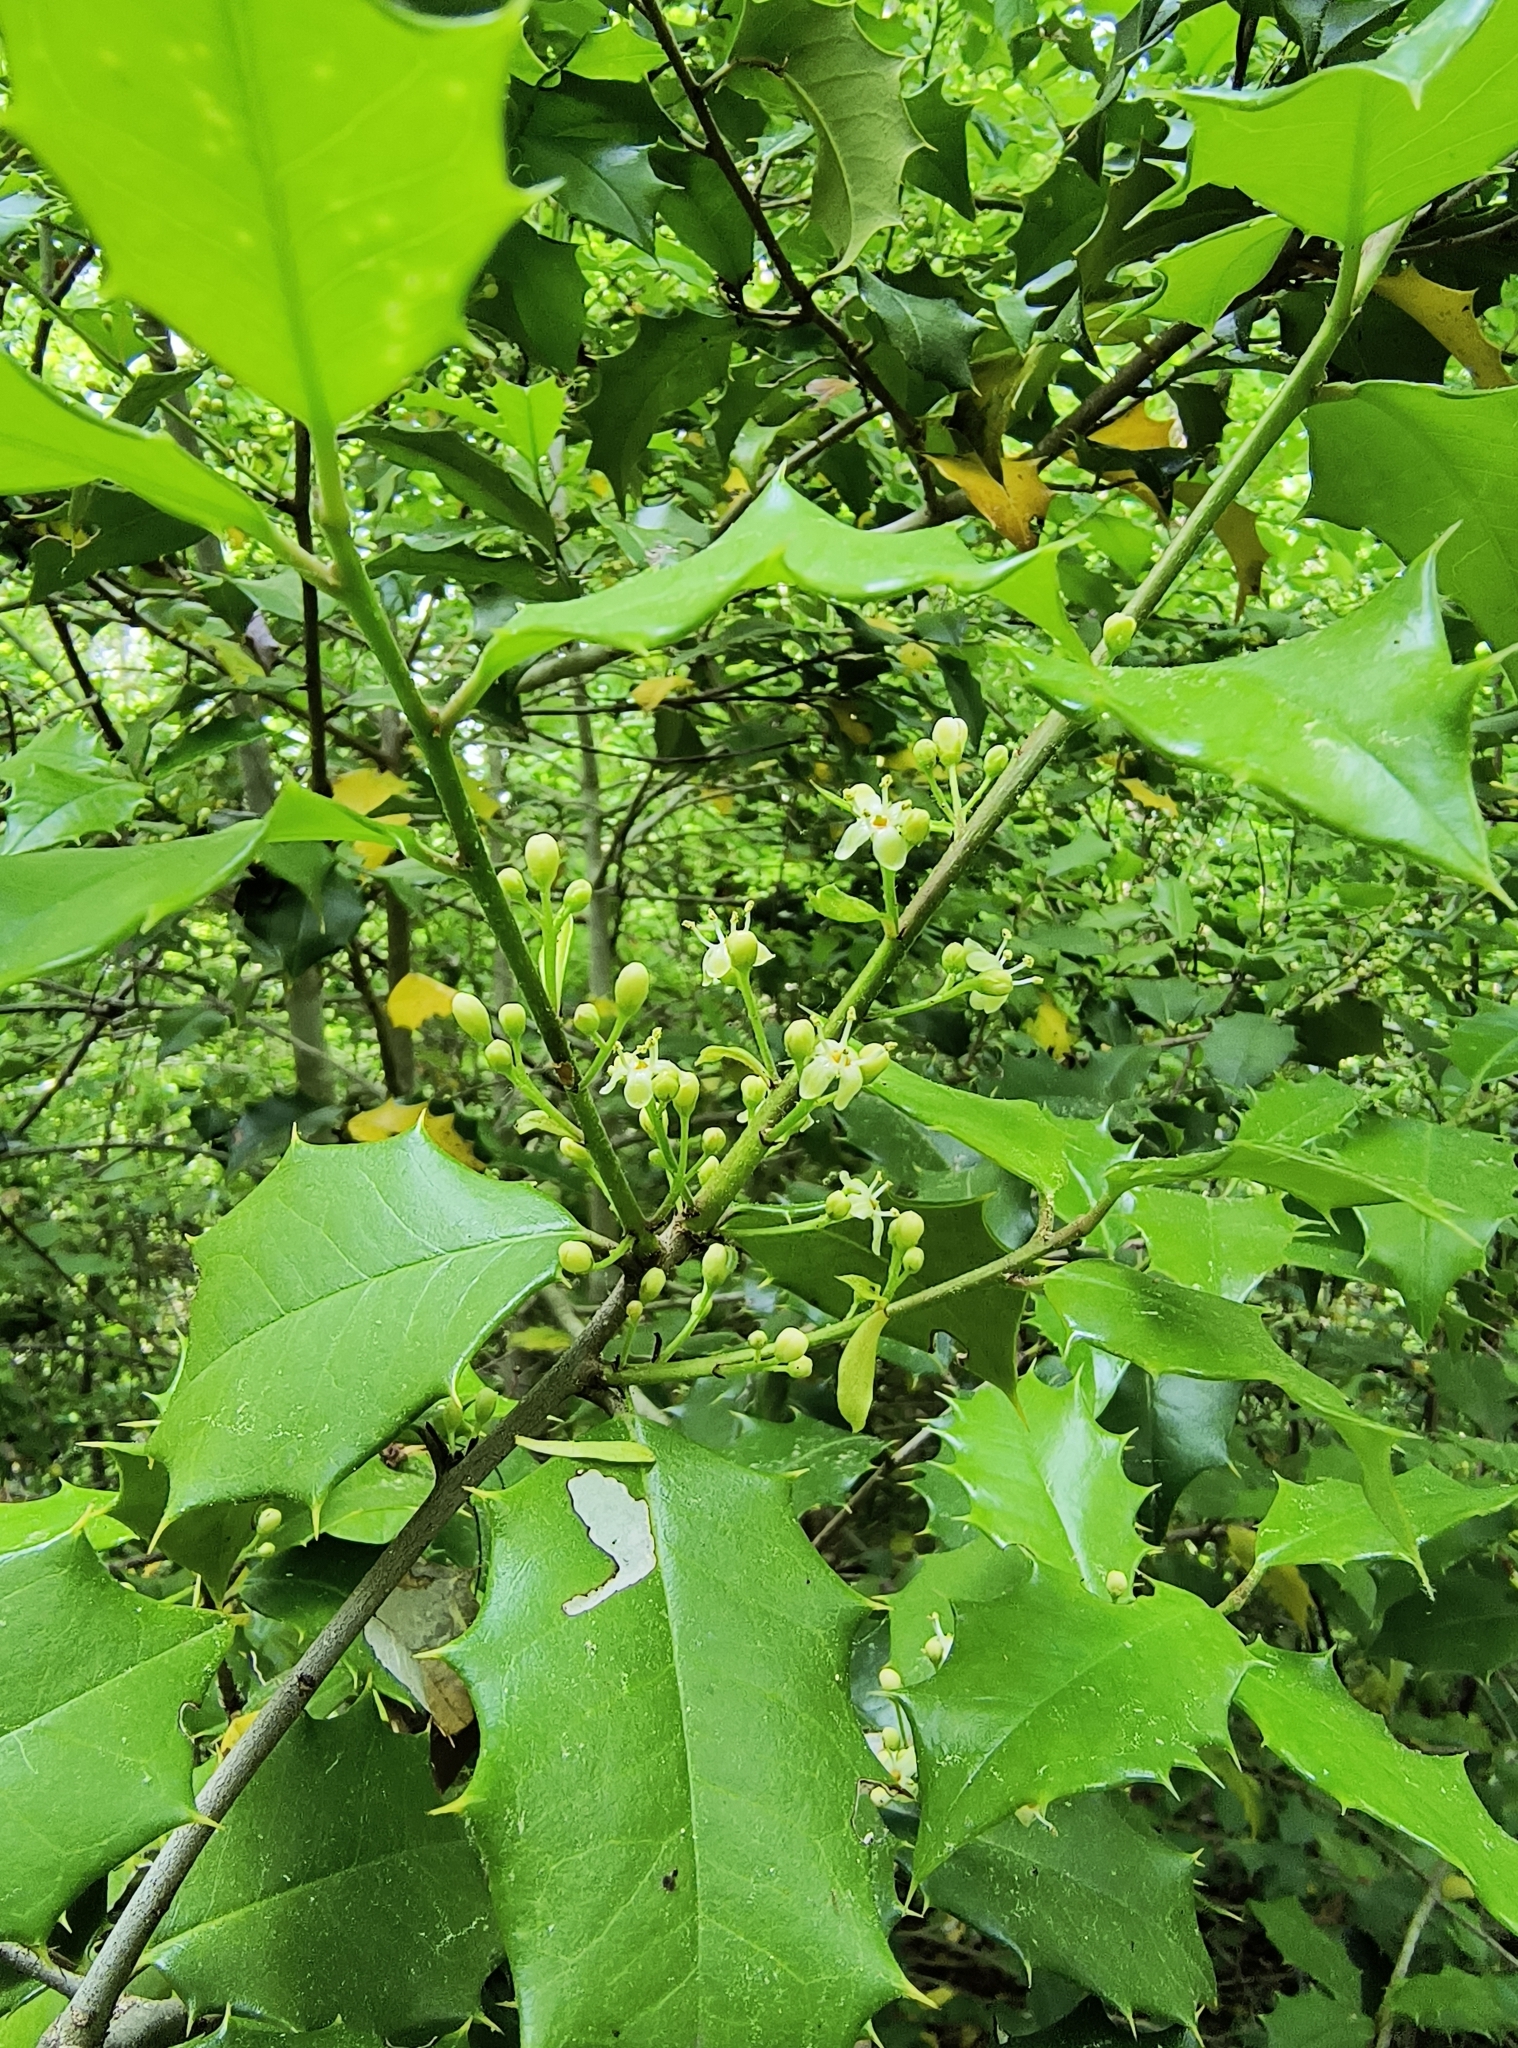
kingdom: Plantae
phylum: Tracheophyta
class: Magnoliopsida
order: Aquifoliales
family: Aquifoliaceae
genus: Ilex
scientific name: Ilex opaca
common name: American holly
